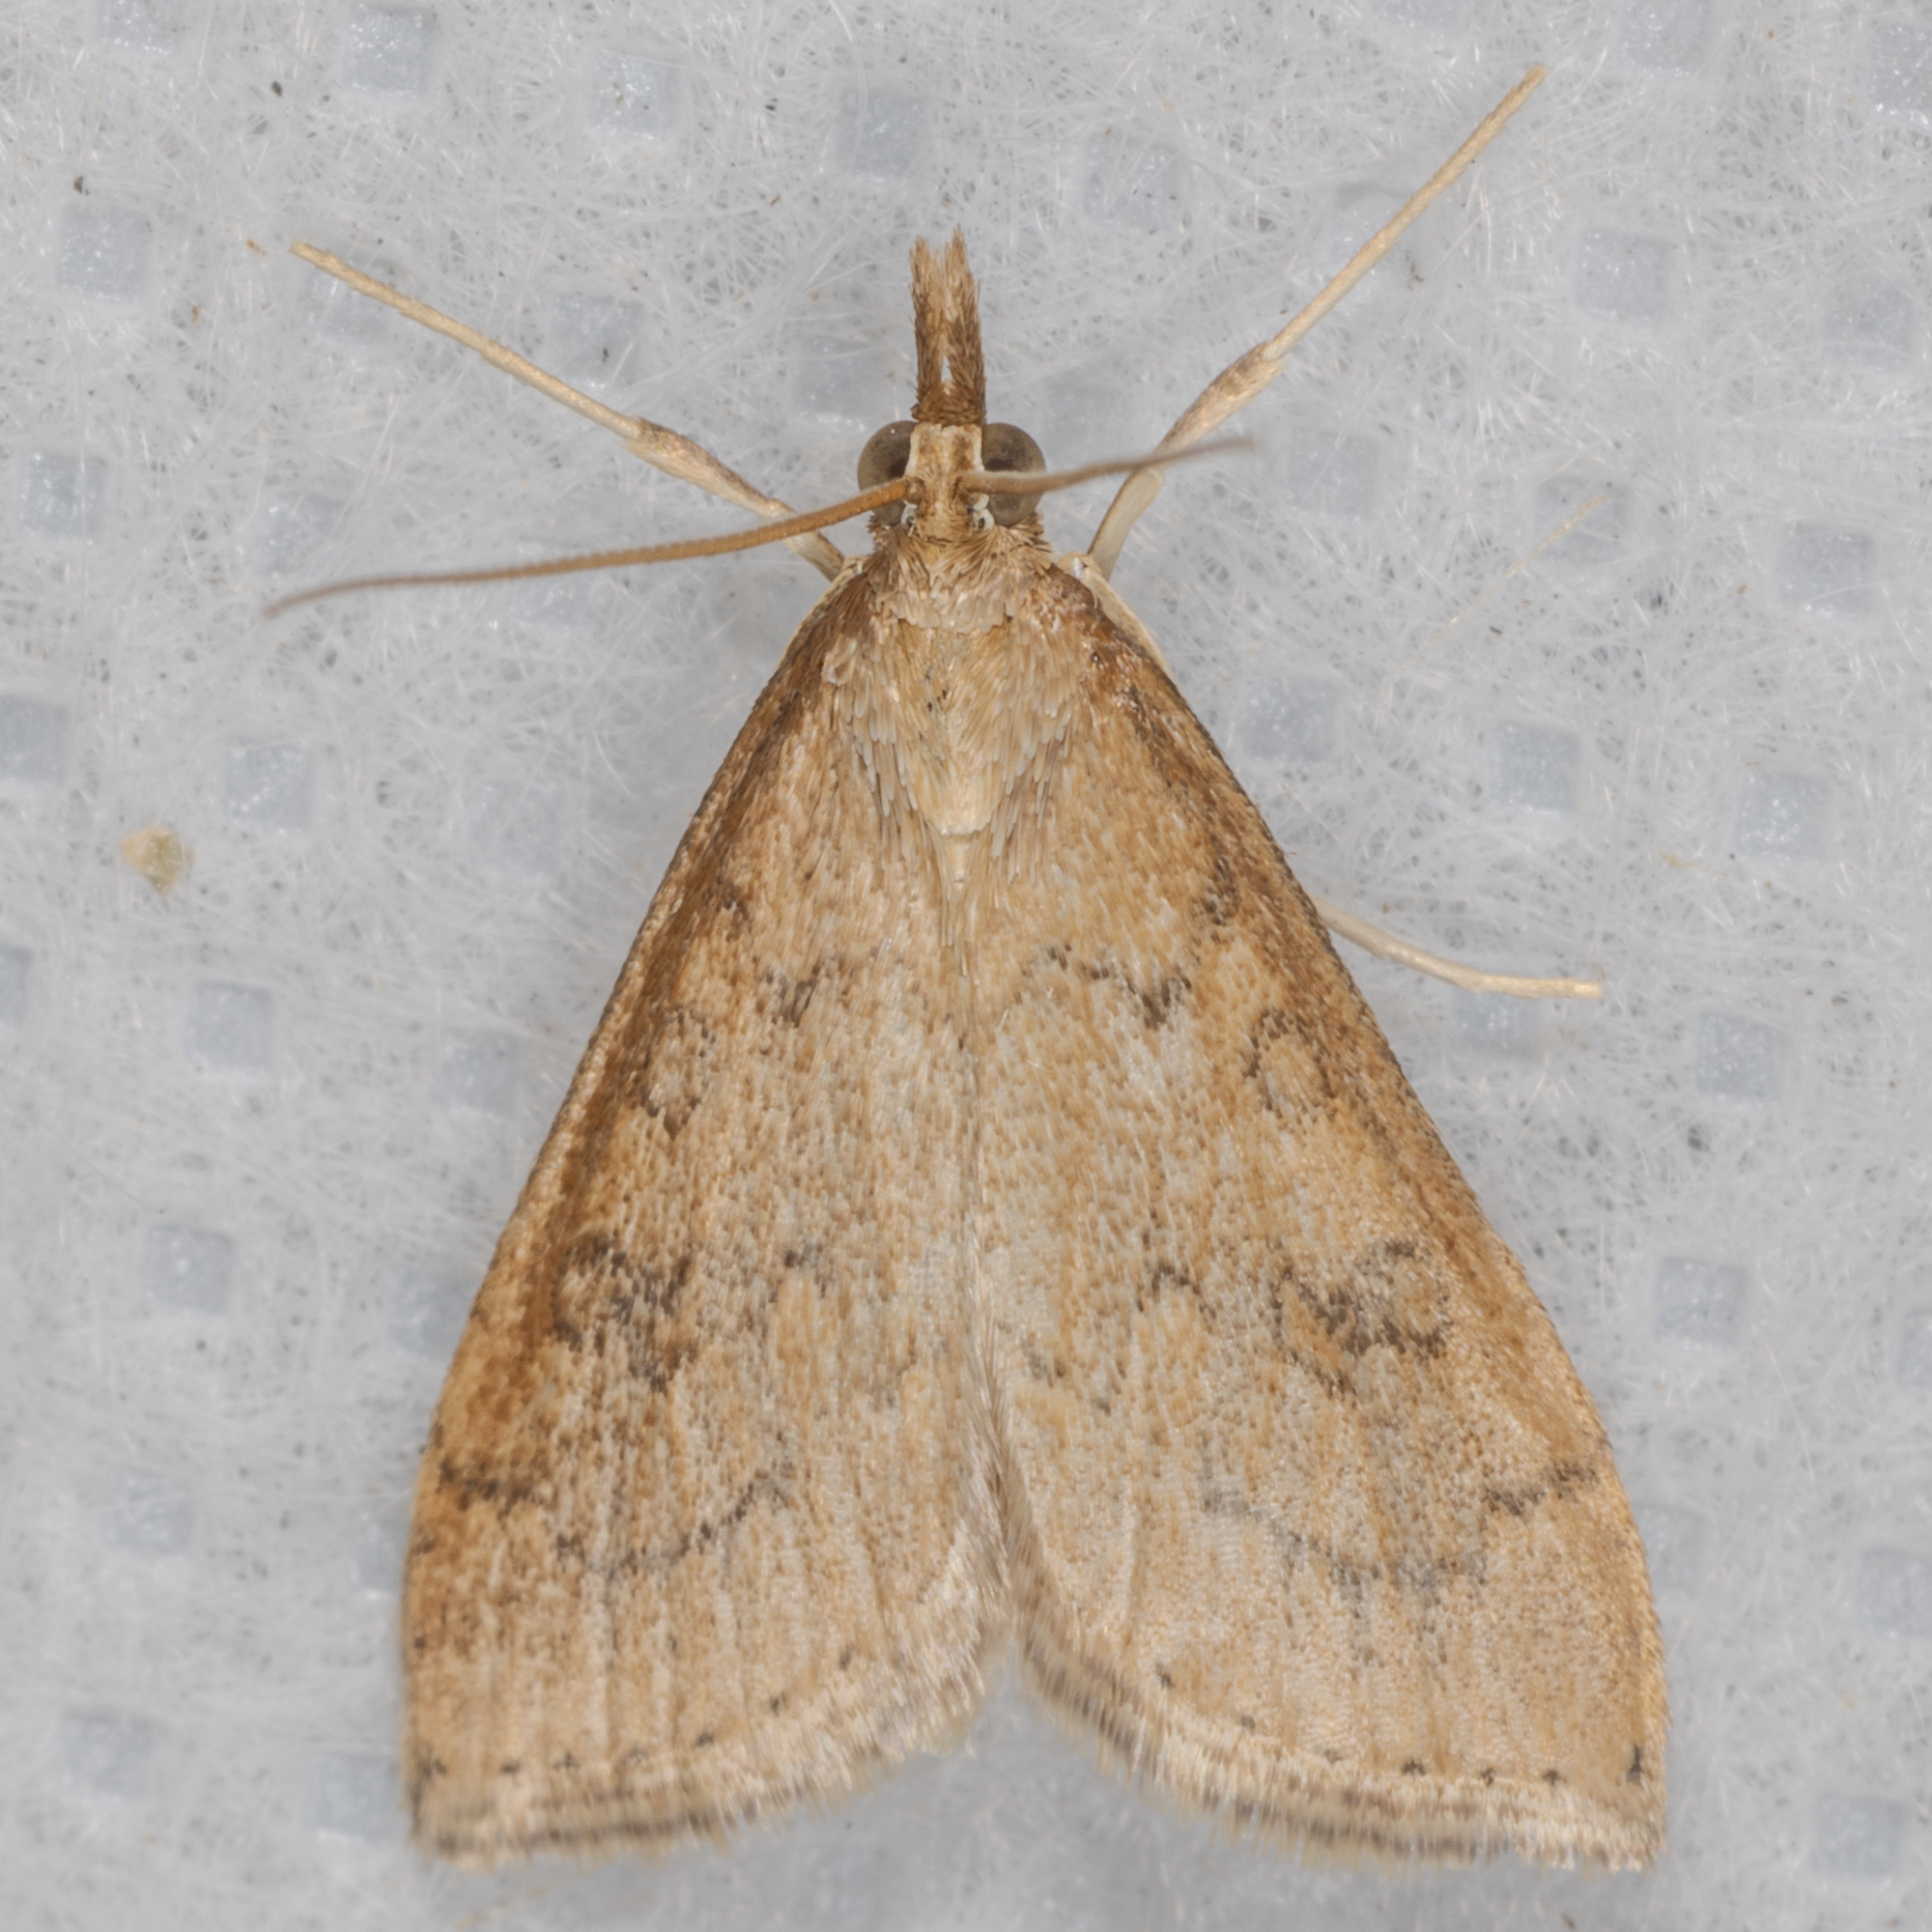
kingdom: Animalia
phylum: Arthropoda
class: Insecta
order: Lepidoptera
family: Crambidae
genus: Udea
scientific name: Udea rubigalis
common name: Celery leaftier moth
